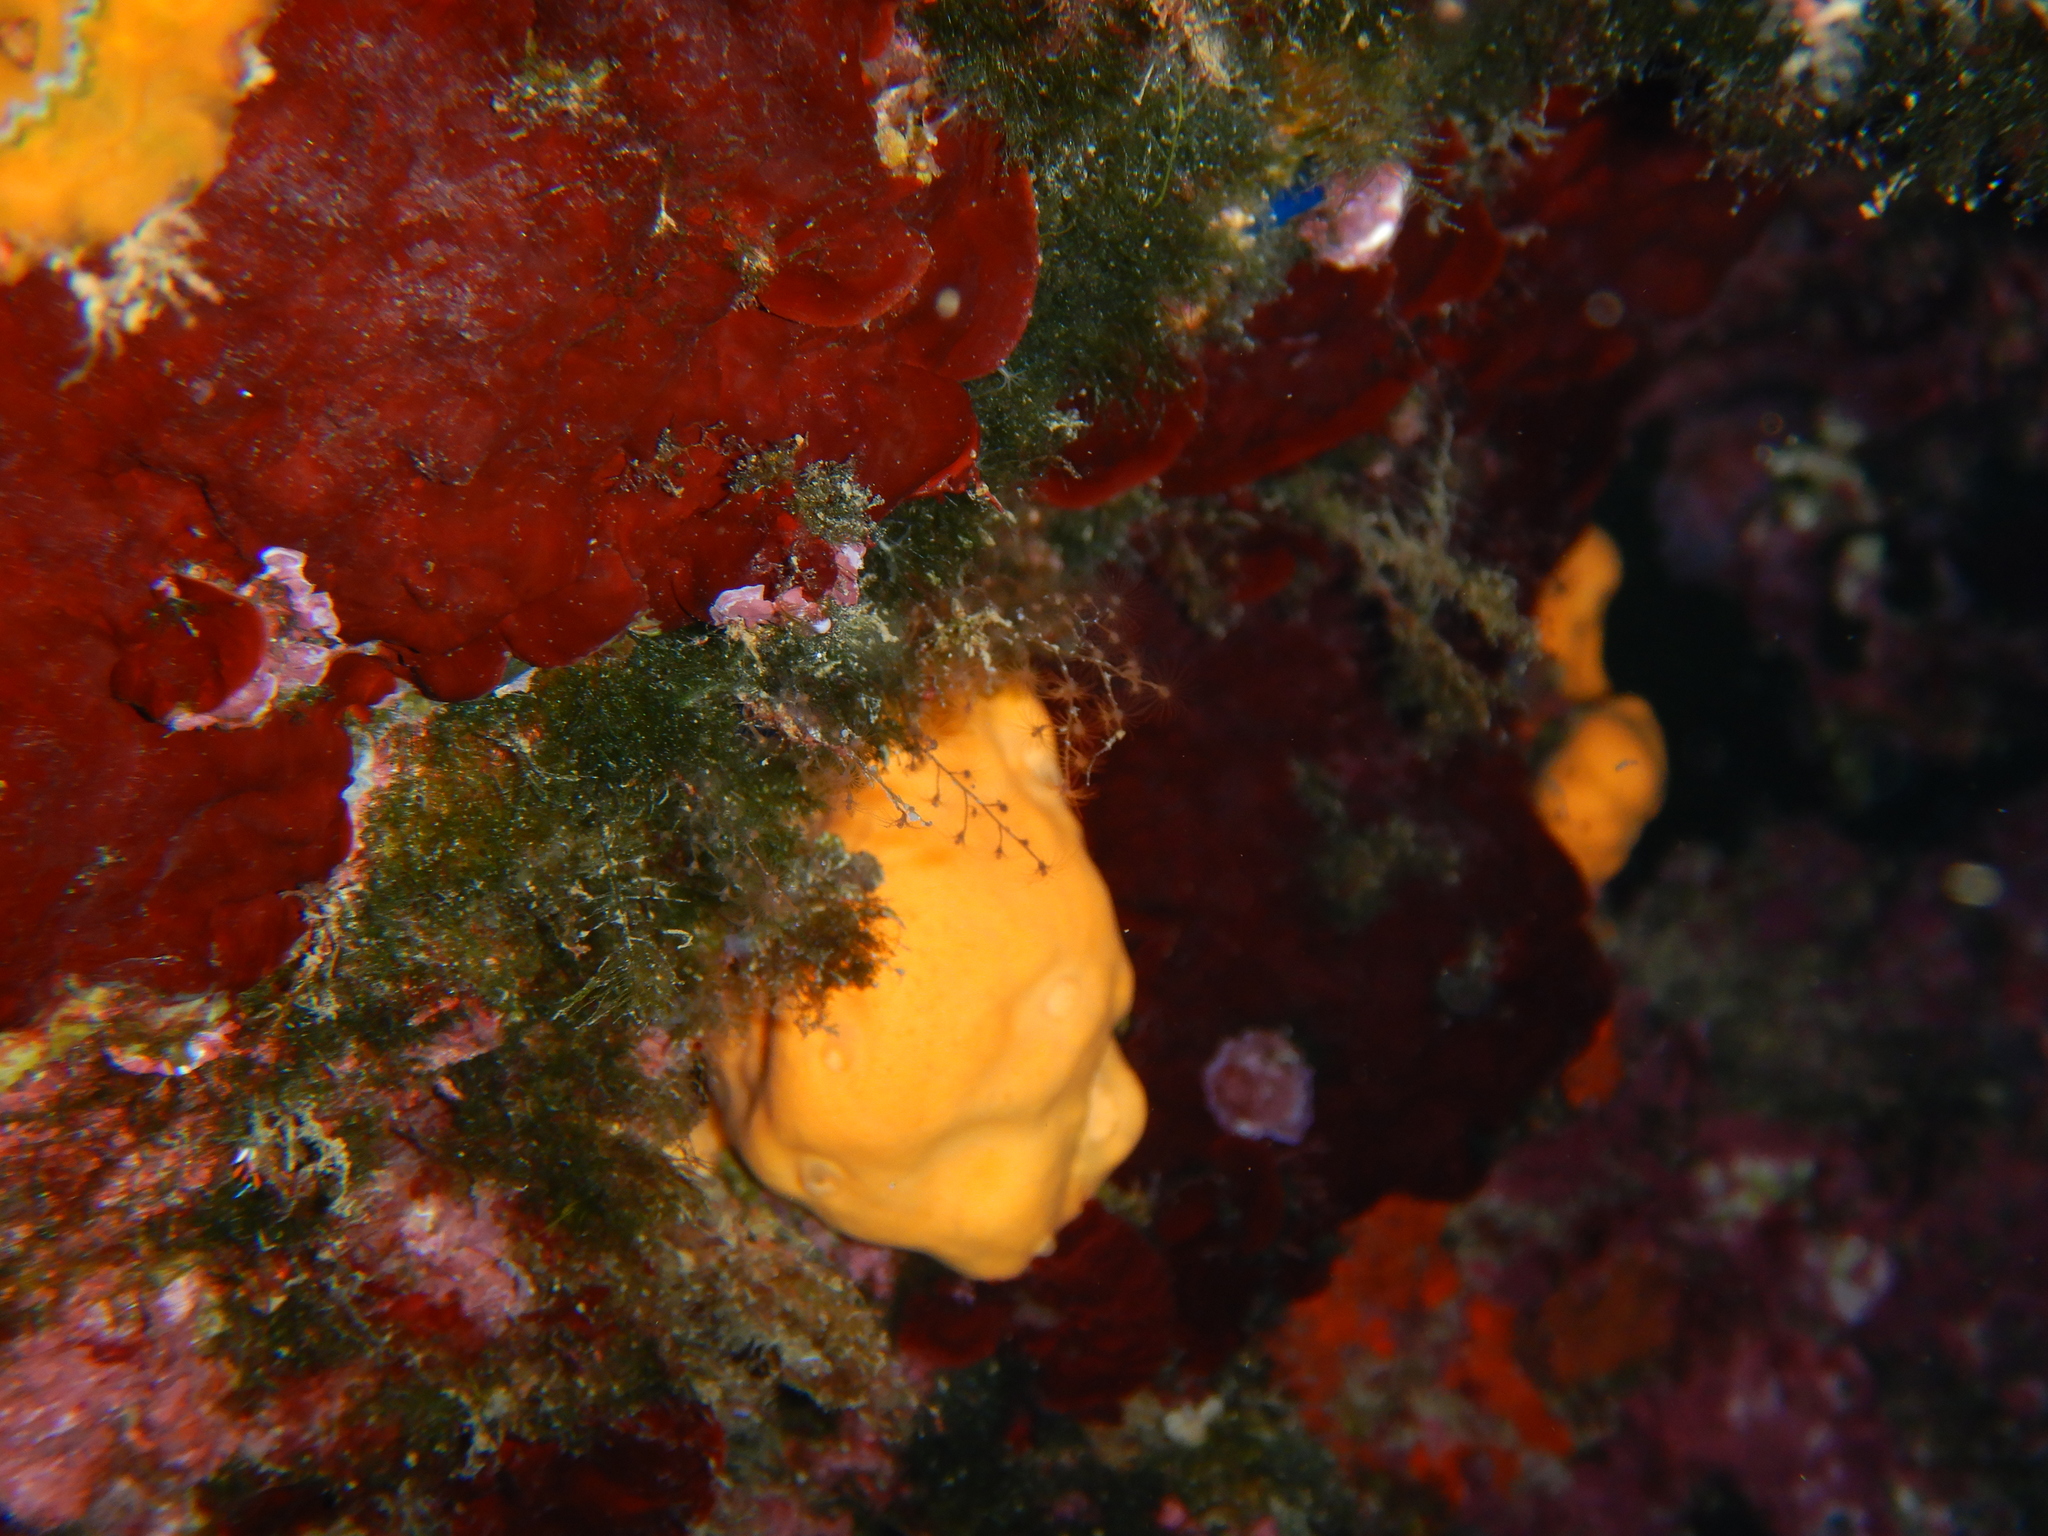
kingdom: Animalia
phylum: Porifera
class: Demospongiae
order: Agelasida
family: Agelasidae
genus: Agelas
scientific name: Agelas oroides
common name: Maltese sponge
